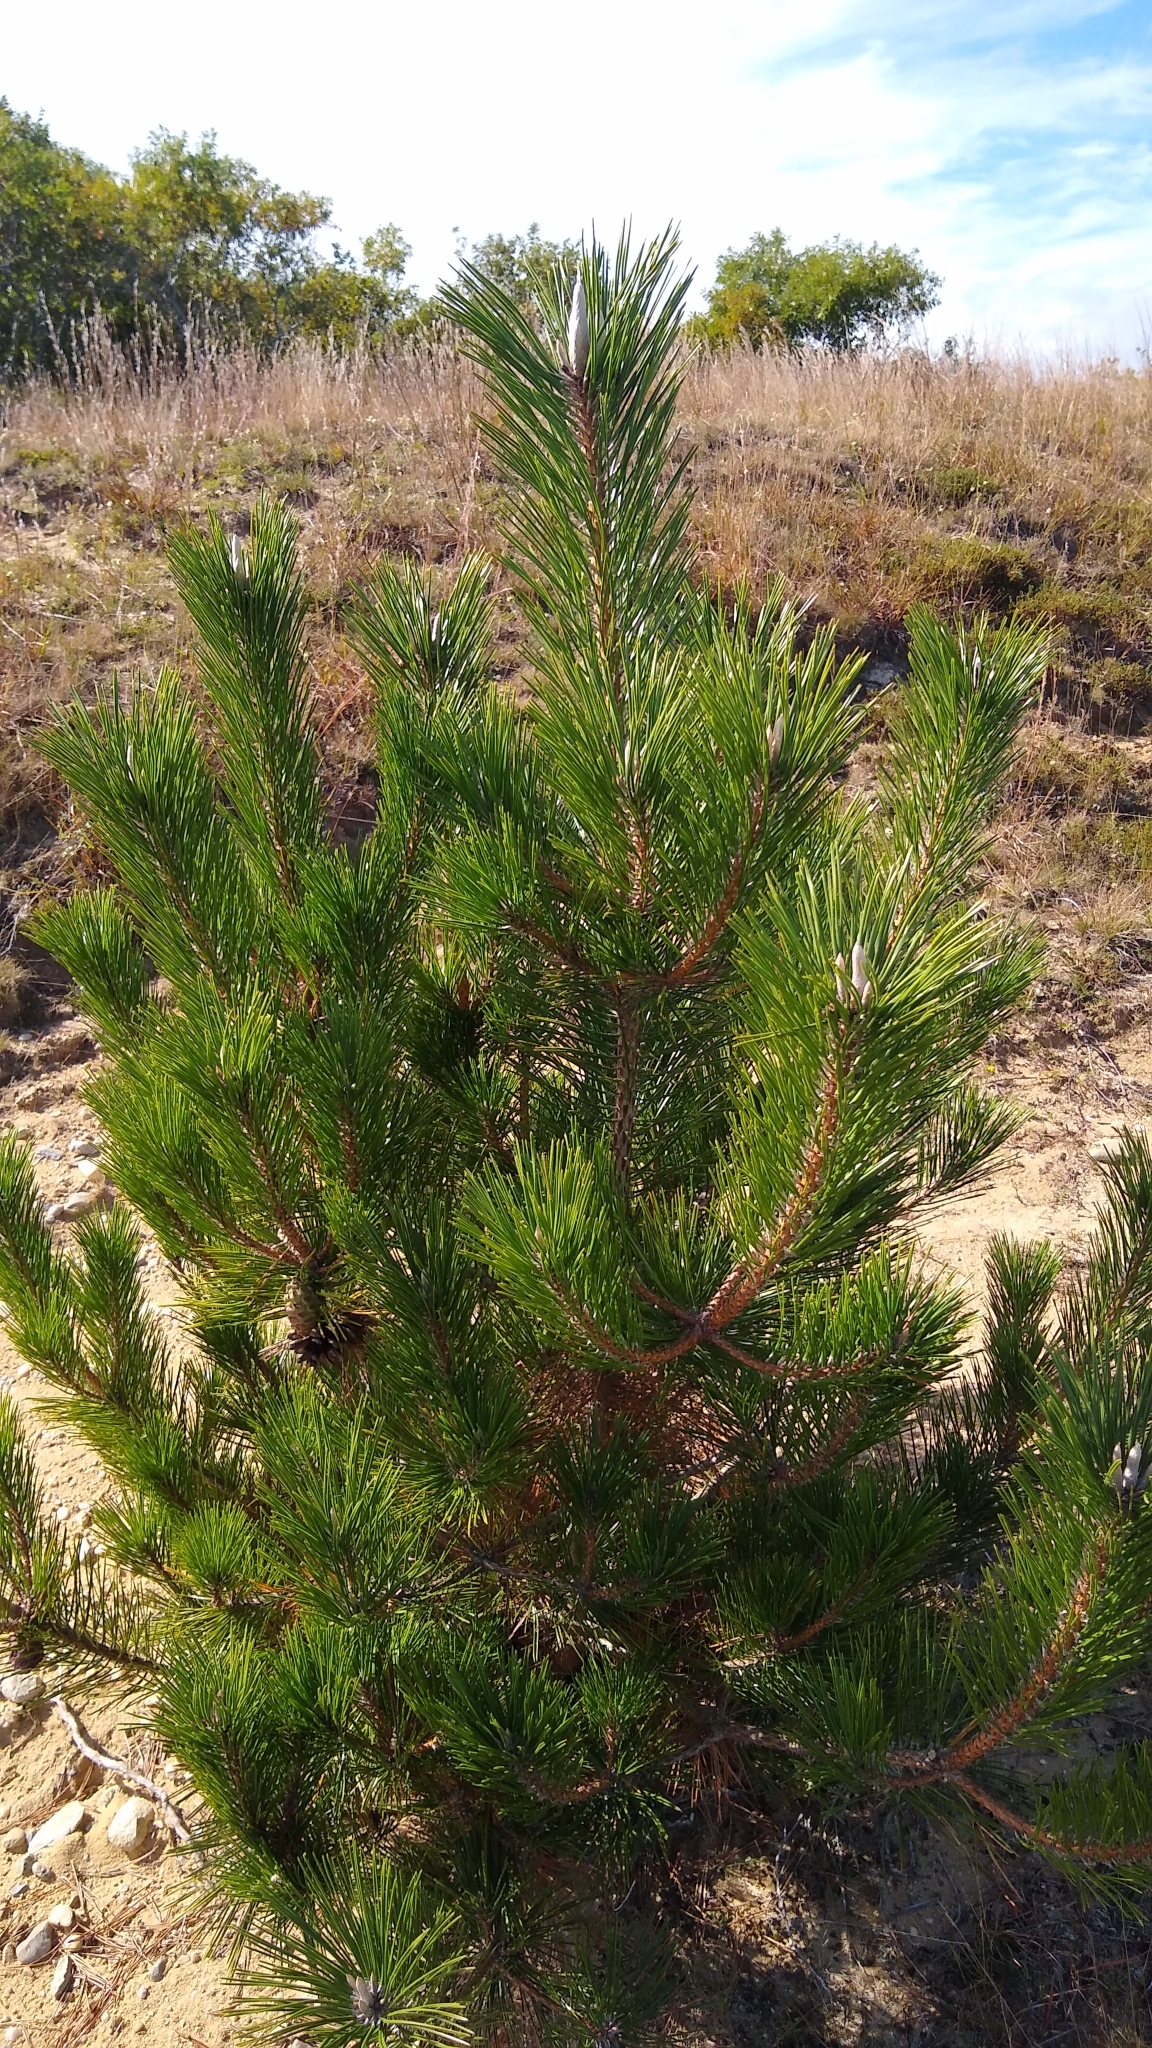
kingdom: Plantae
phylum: Tracheophyta
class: Pinopsida
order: Pinales
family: Pinaceae
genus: Pinus
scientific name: Pinus thunbergii
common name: Japanese black pine
